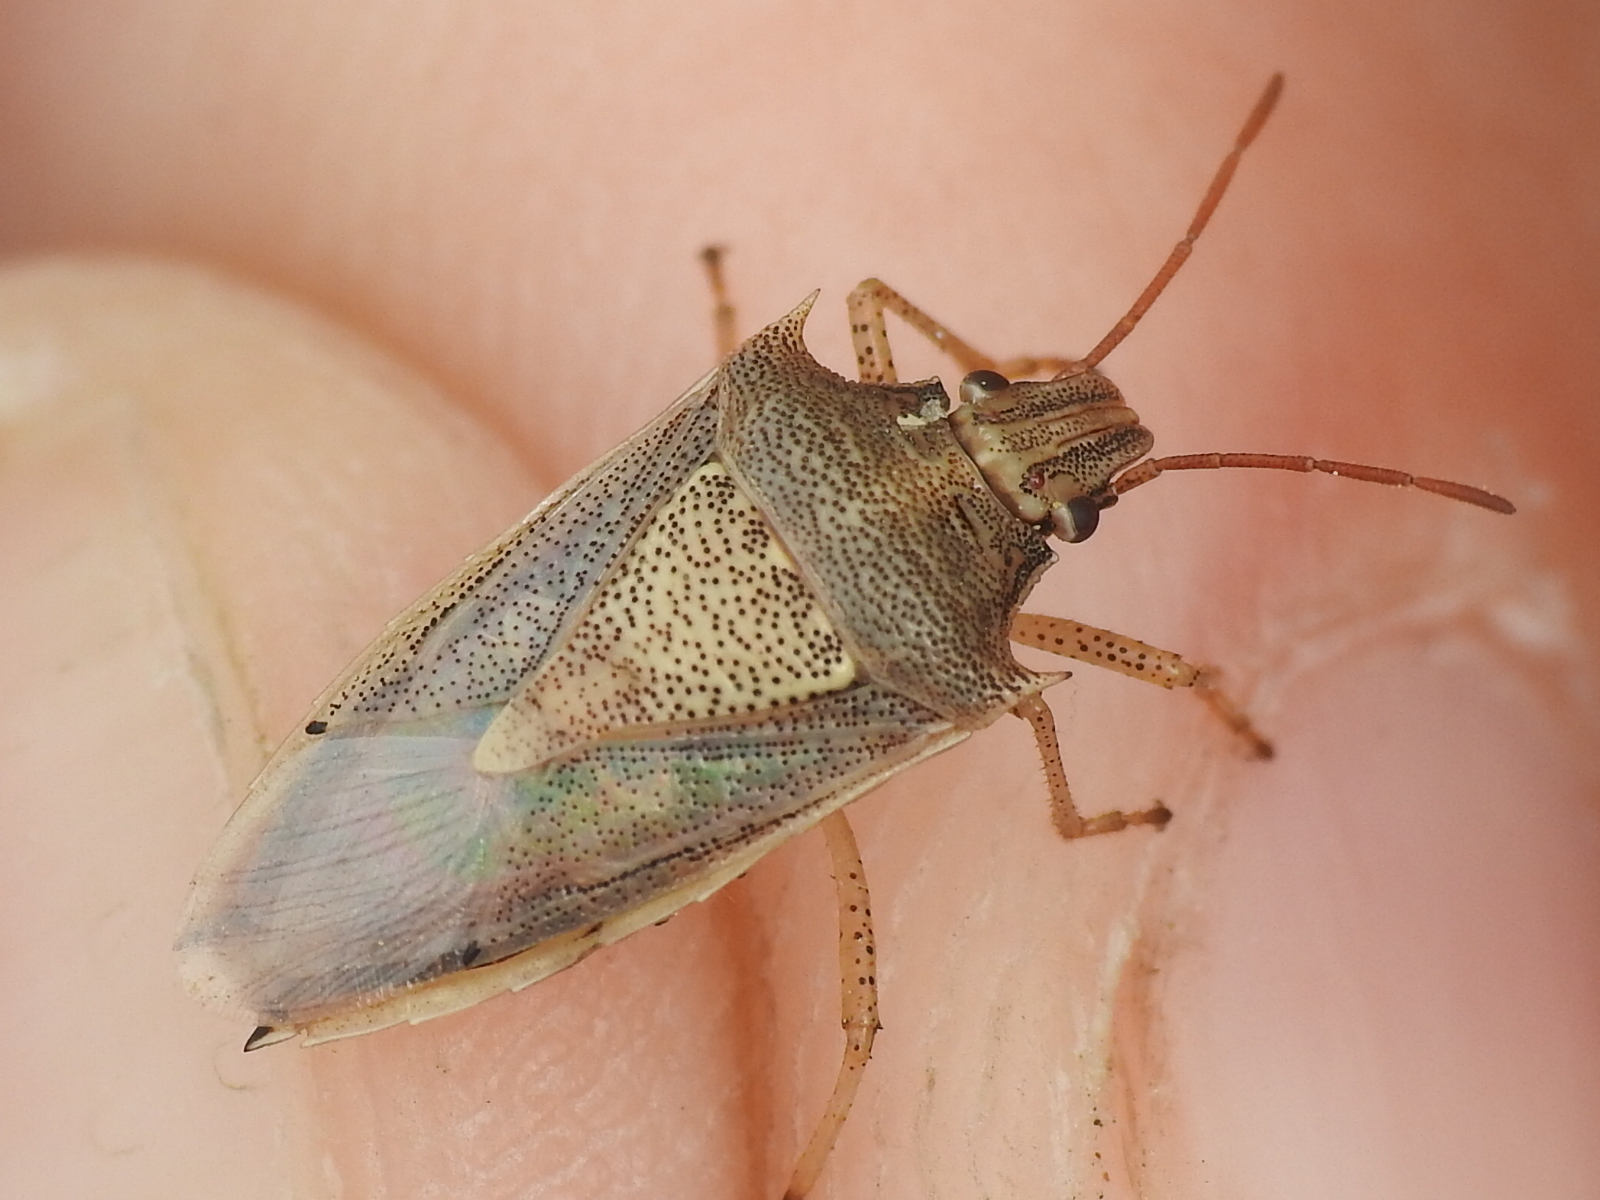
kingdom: Animalia
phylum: Arthropoda
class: Insecta
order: Hemiptera
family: Pentatomidae
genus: Oebalus
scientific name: Oebalus pugnax
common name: Rice stink bug
